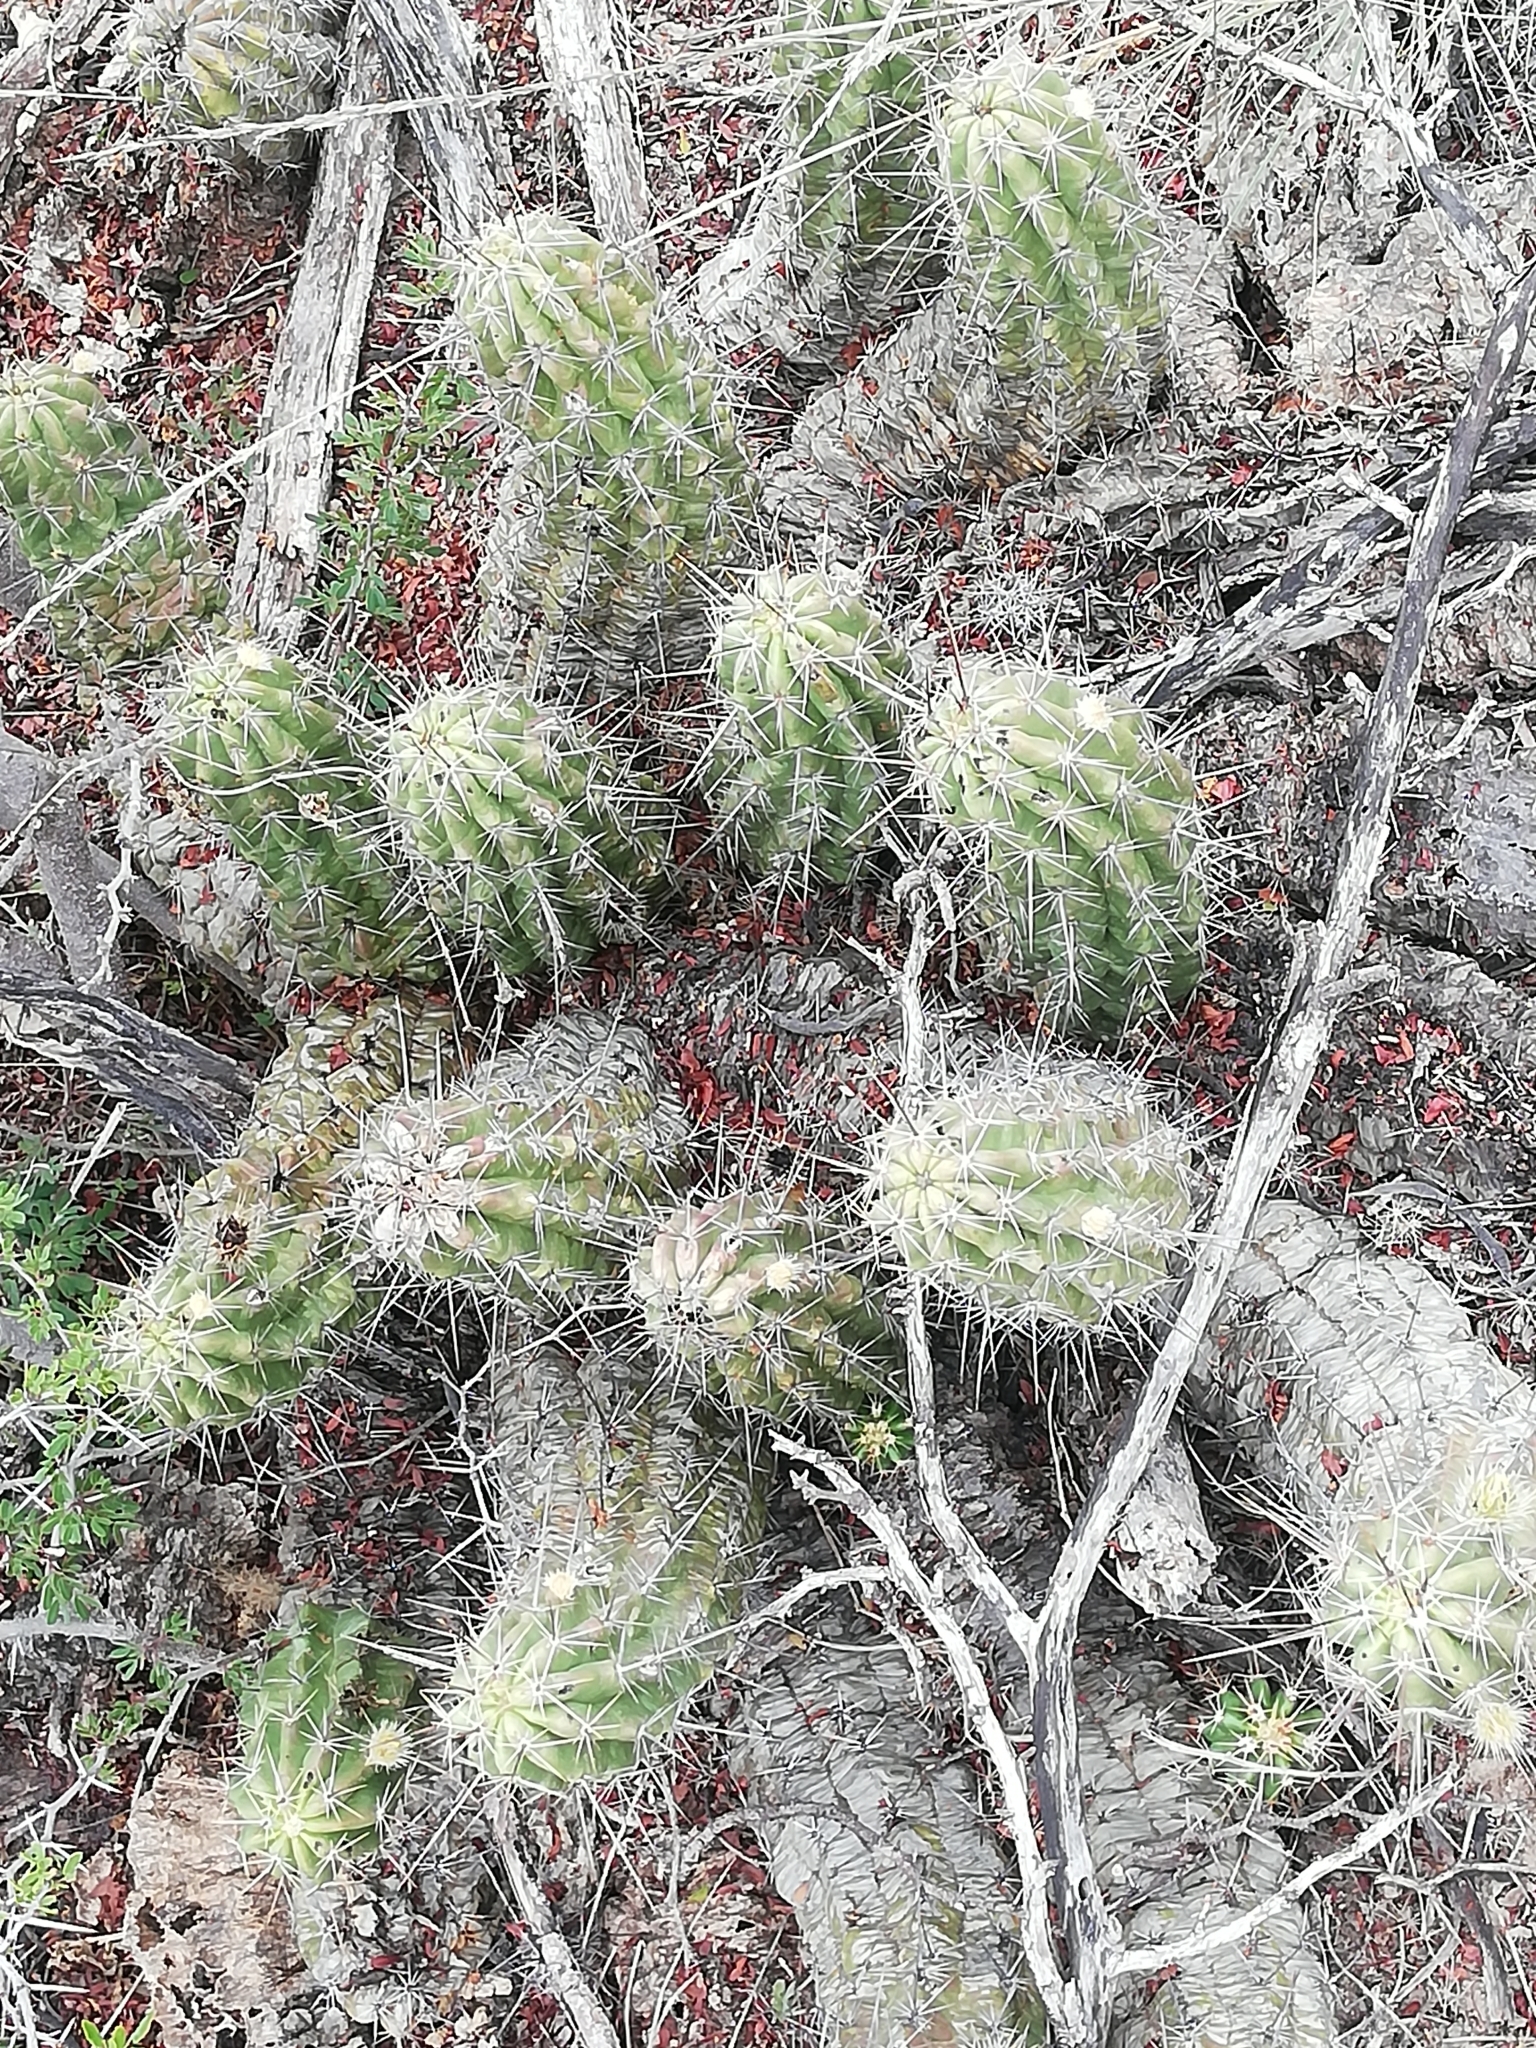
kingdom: Plantae
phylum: Tracheophyta
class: Magnoliopsida
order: Caryophyllales
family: Cactaceae
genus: Echinocereus
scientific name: Echinocereus enneacanthus
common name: Pitaya
